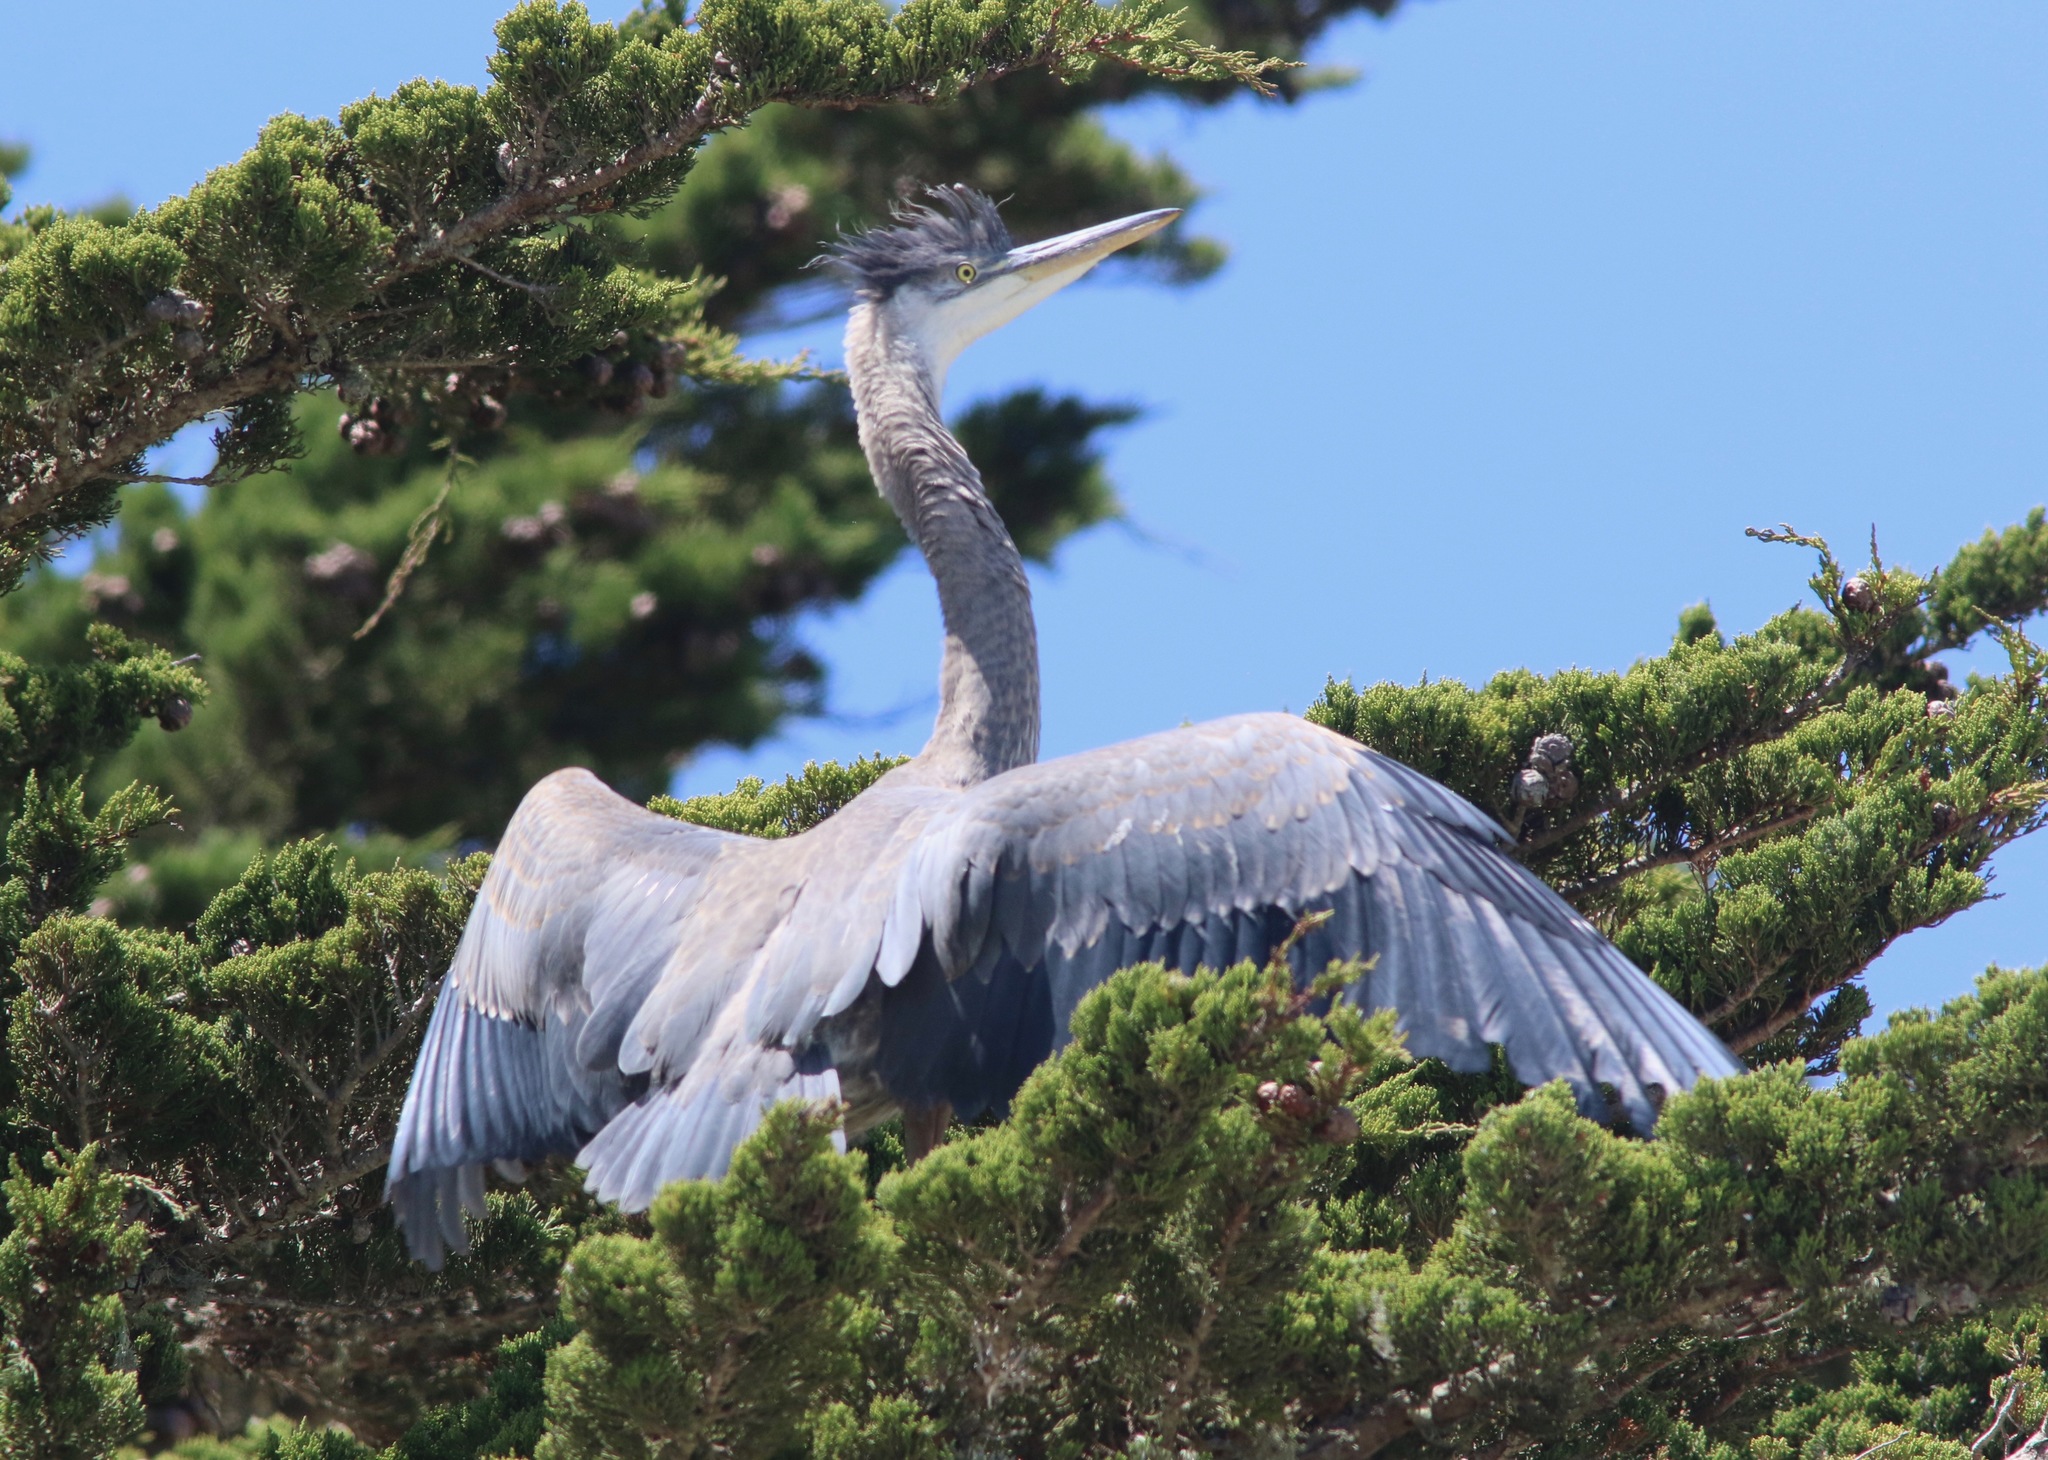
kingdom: Animalia
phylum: Chordata
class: Aves
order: Pelecaniformes
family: Ardeidae
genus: Ardea
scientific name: Ardea herodias
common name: Great blue heron
